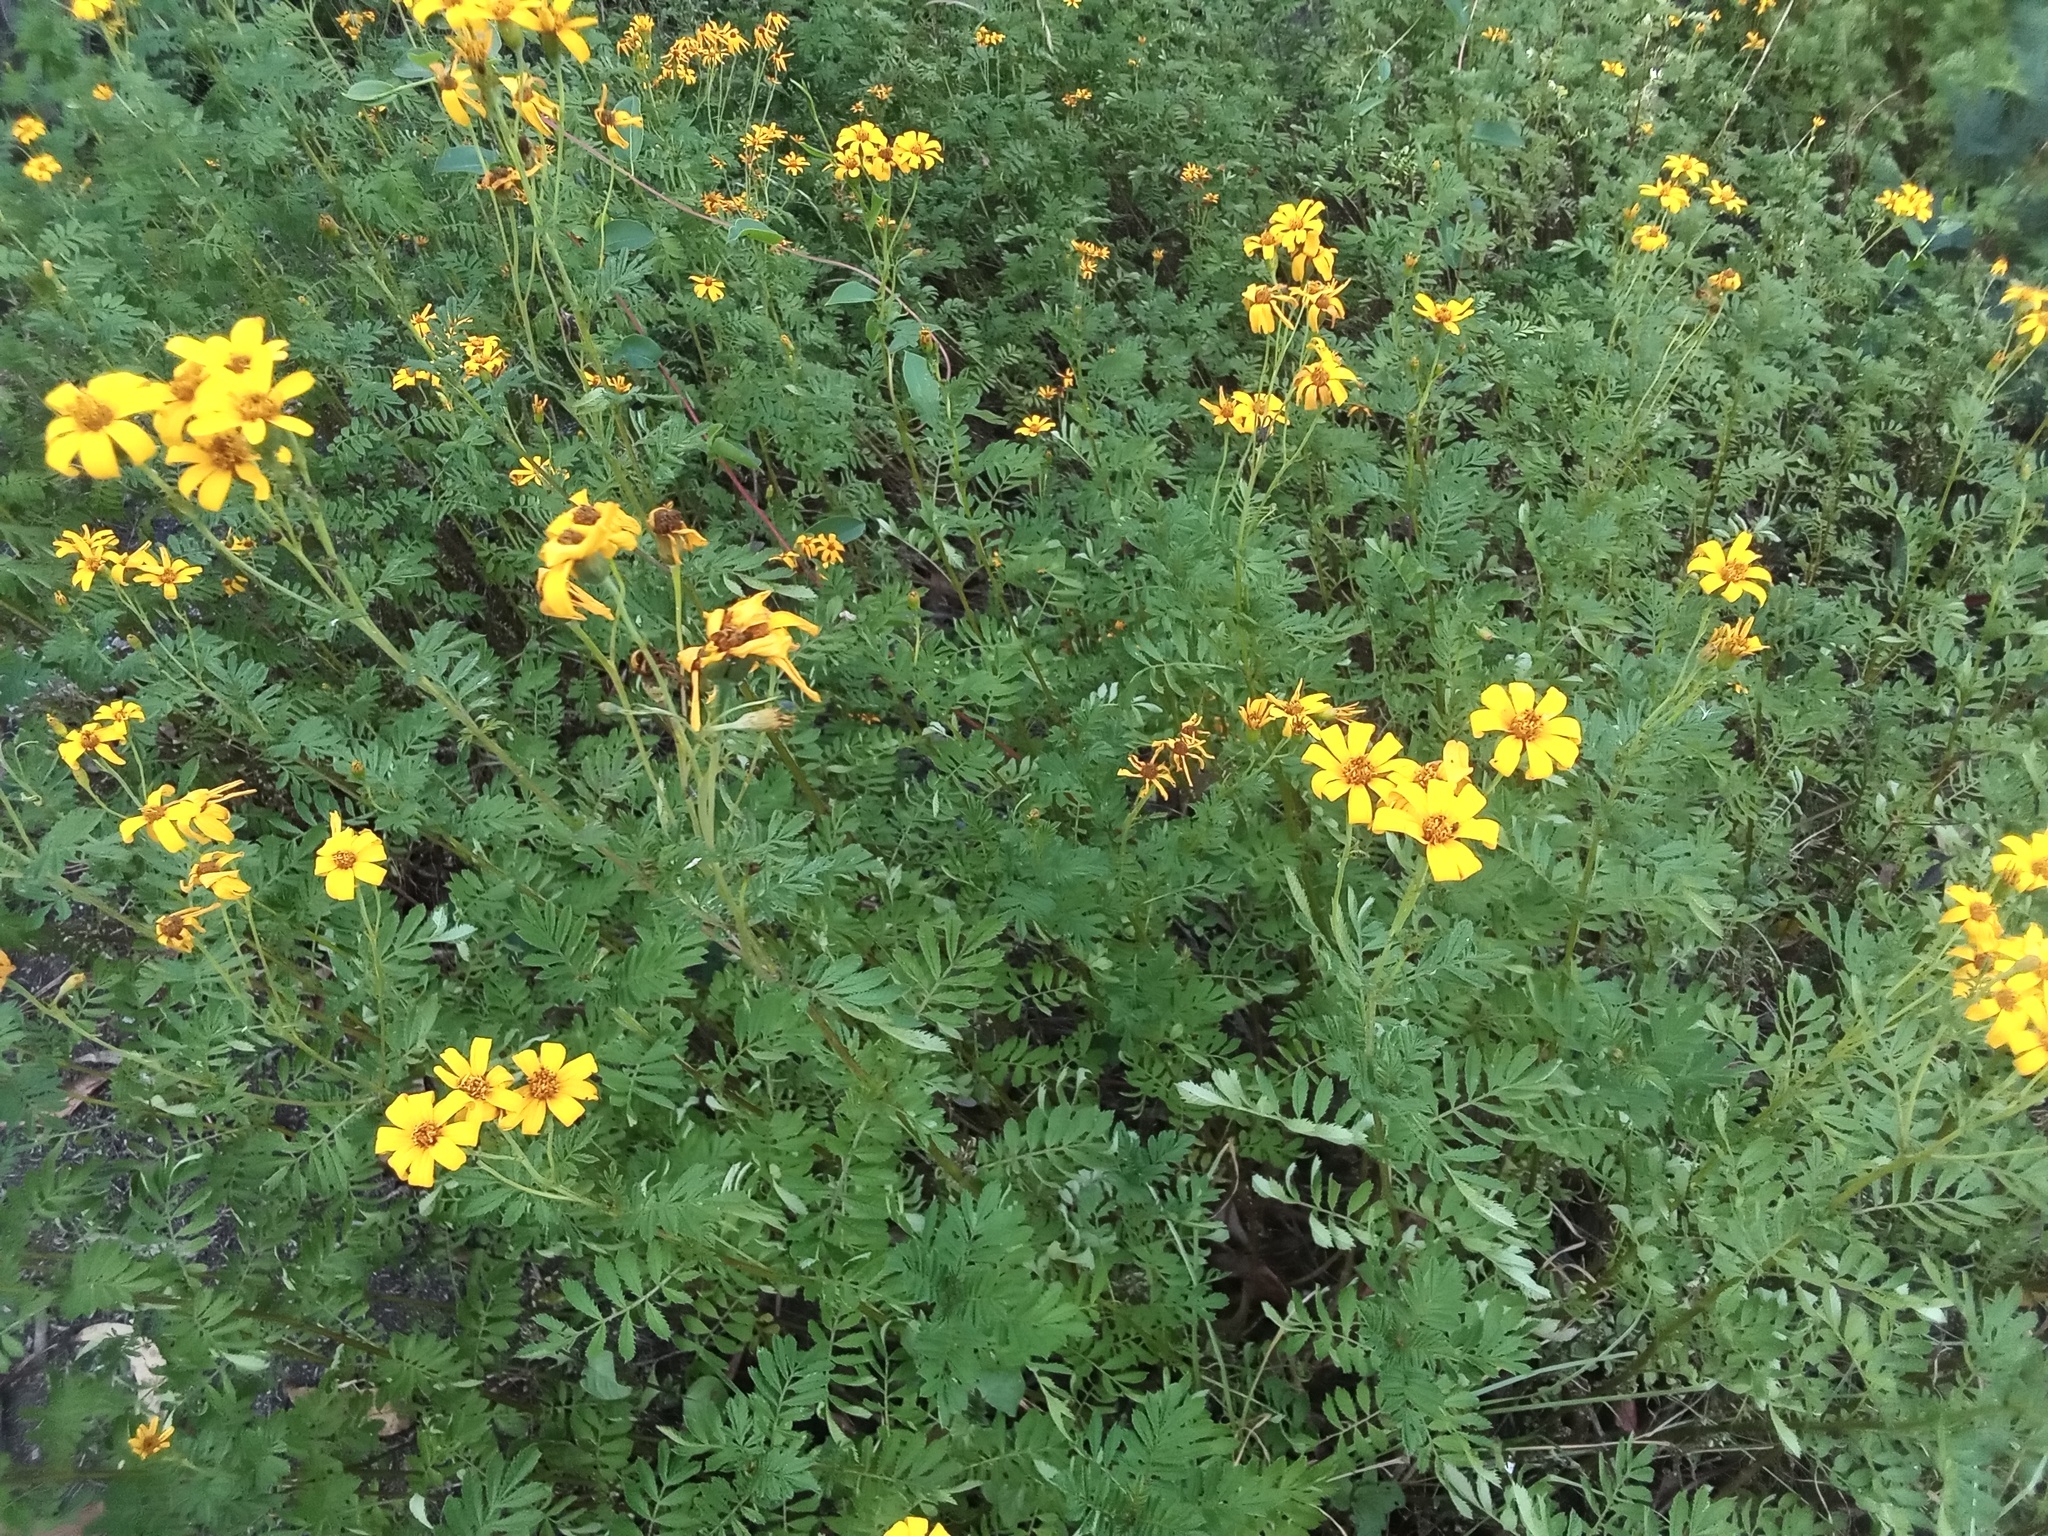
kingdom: Plantae
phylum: Tracheophyta
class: Magnoliopsida
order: Asterales
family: Asteraceae
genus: Tagetes
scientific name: Tagetes zypaquirensis
